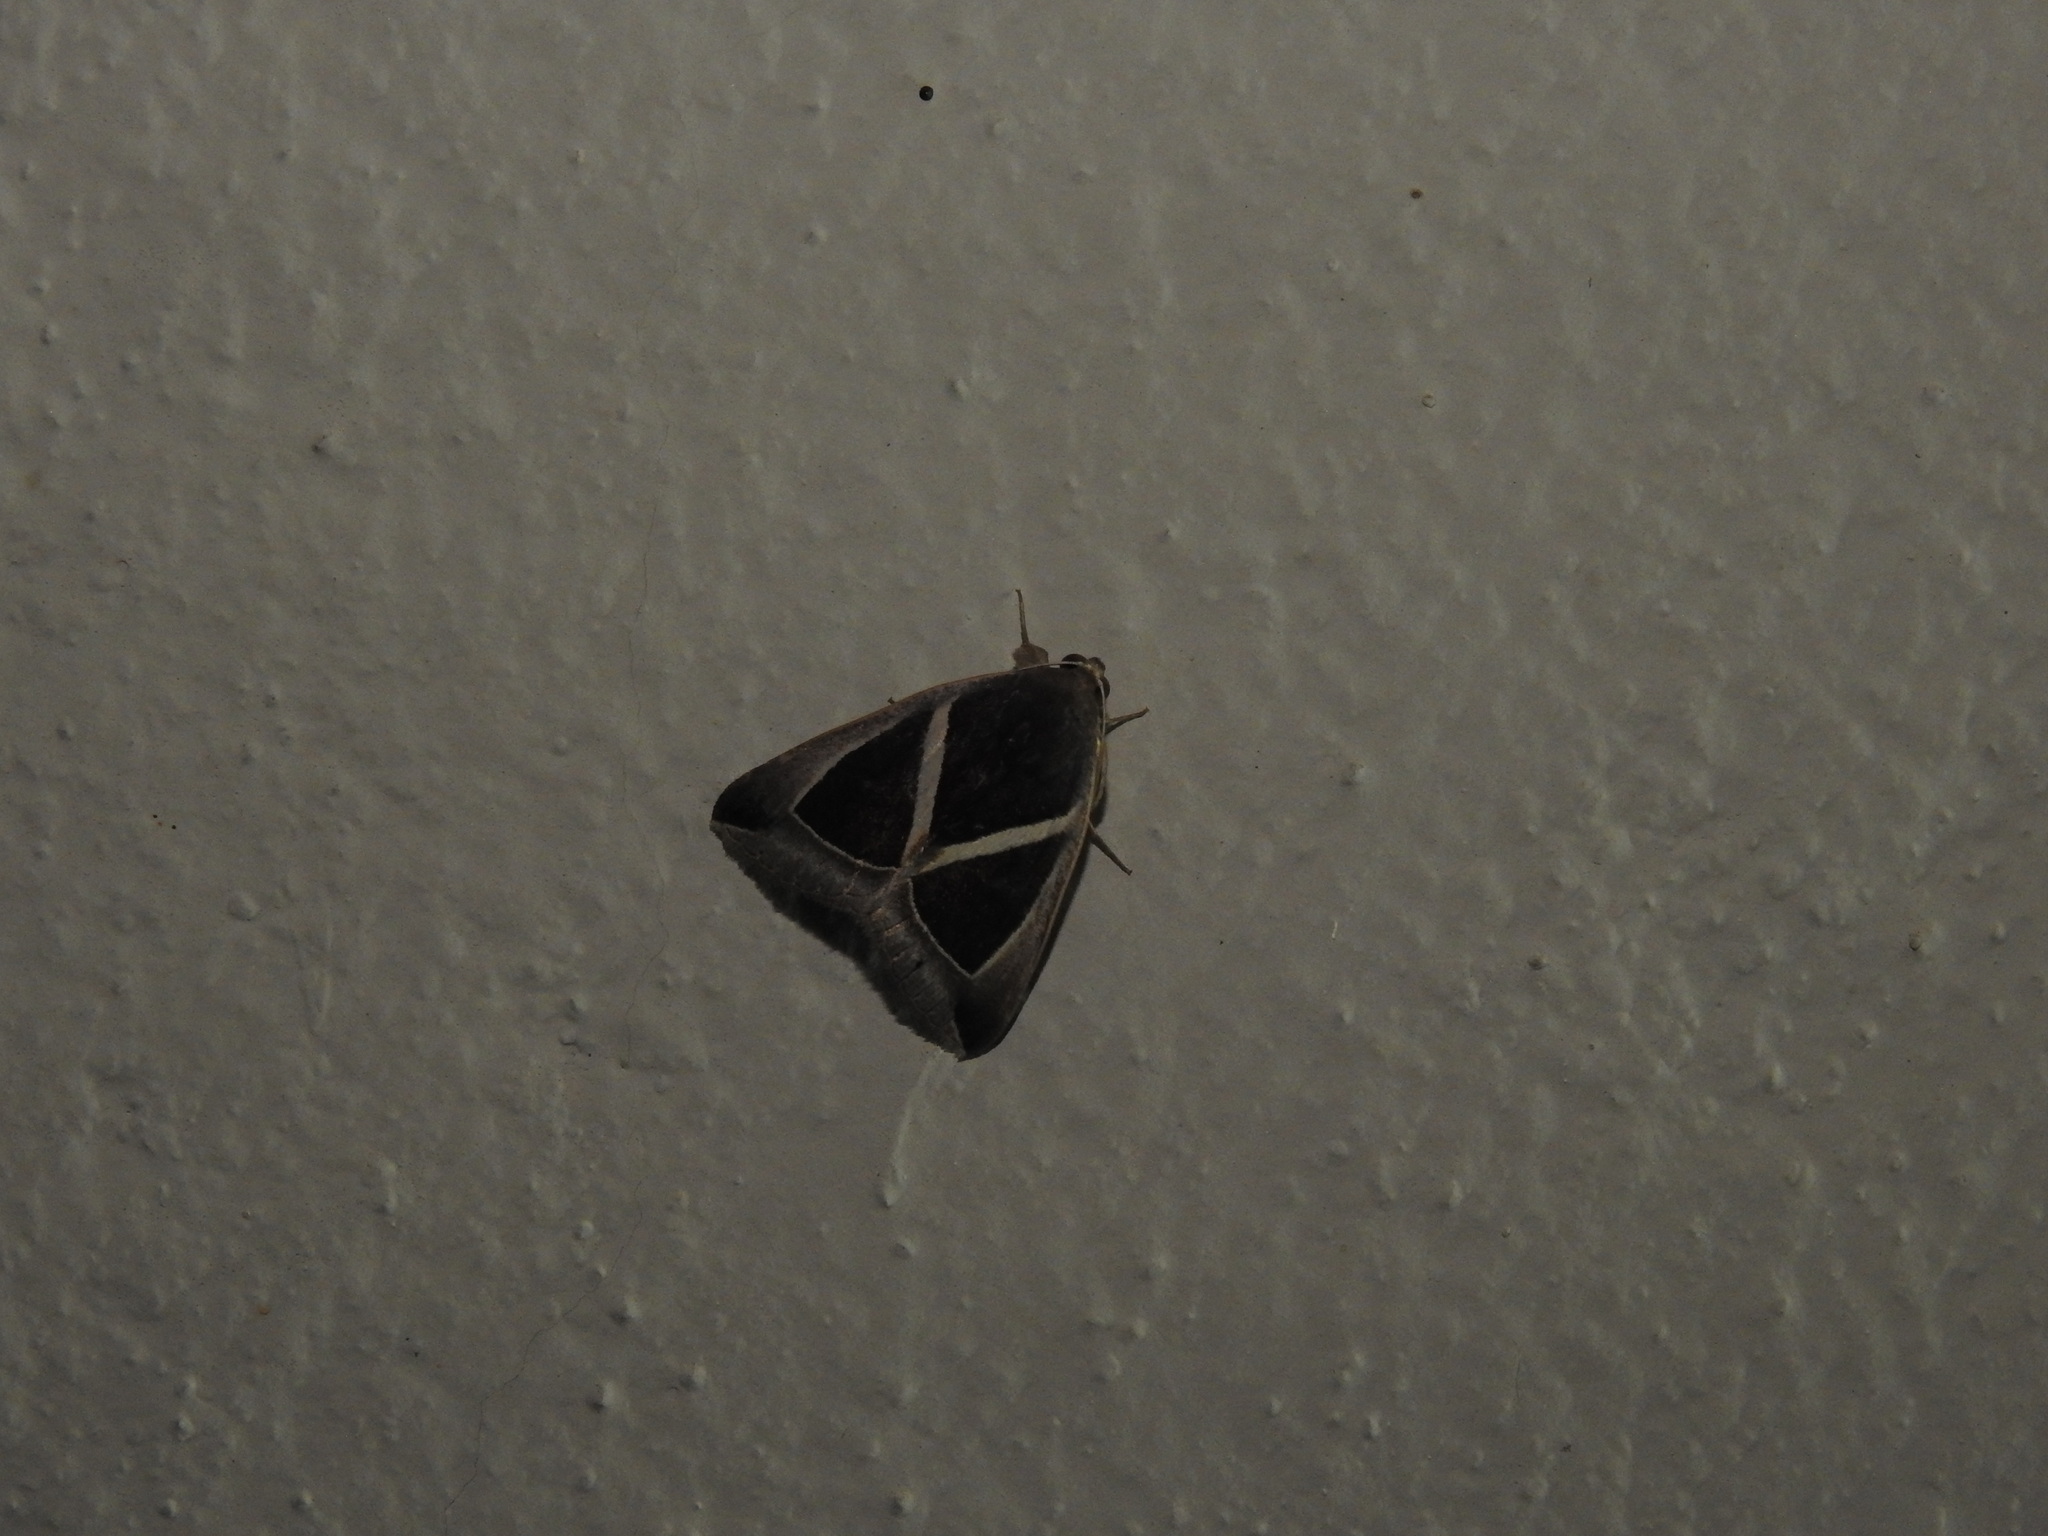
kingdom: Animalia
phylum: Arthropoda
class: Insecta
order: Lepidoptera
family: Erebidae
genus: Chalciope
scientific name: Chalciope mygdon
